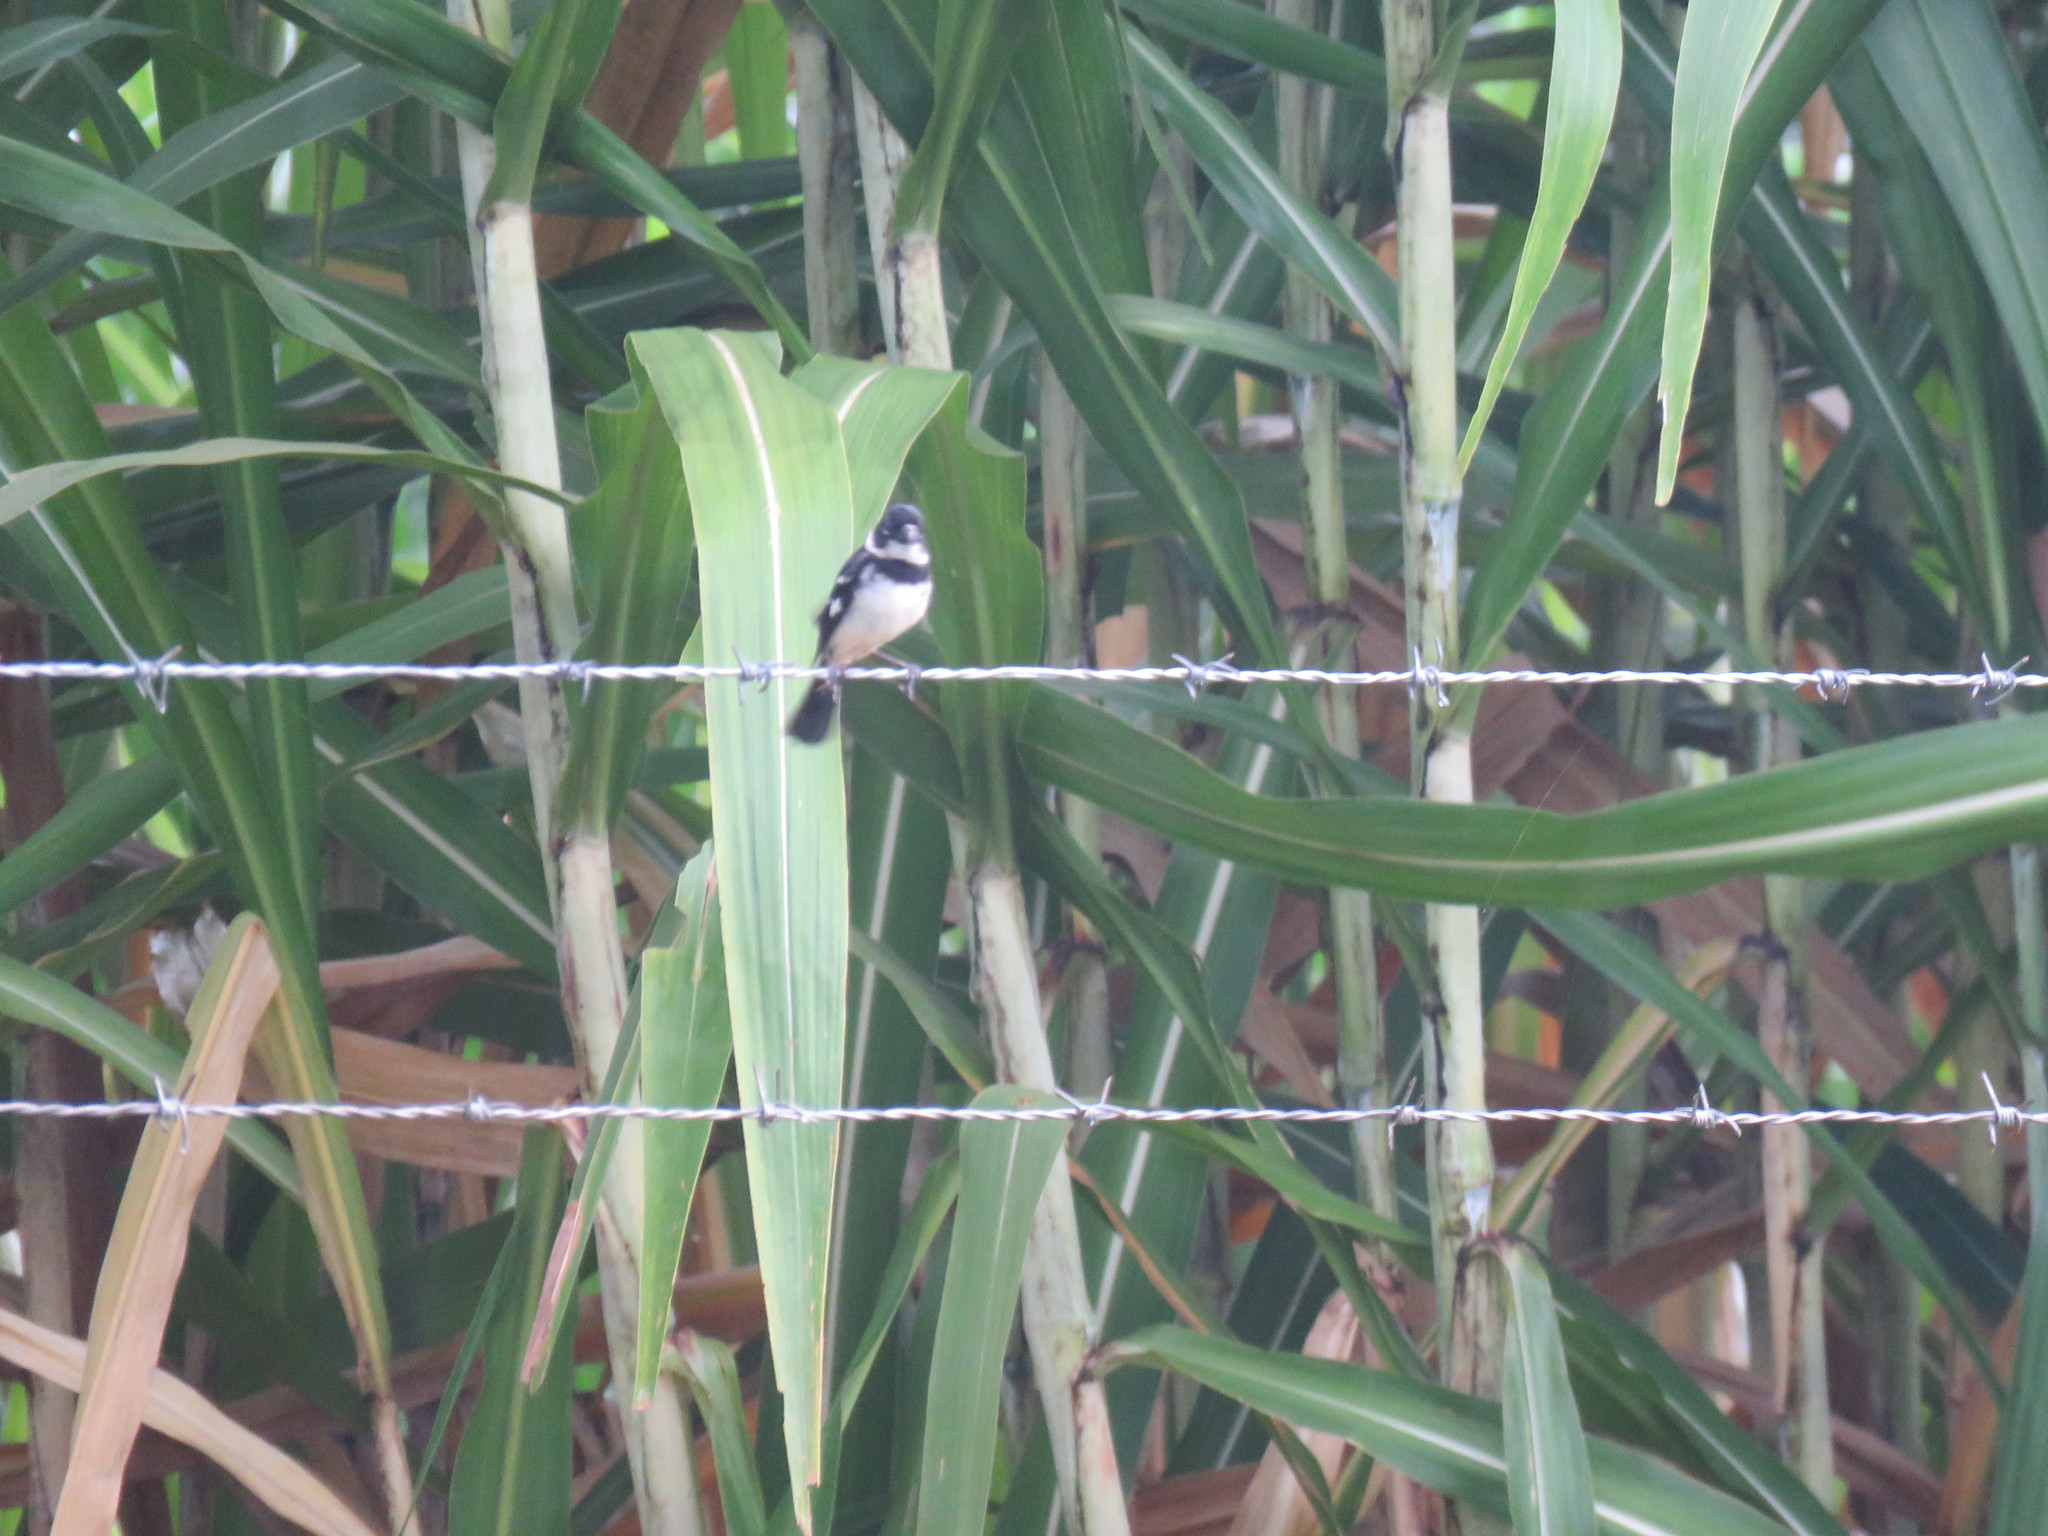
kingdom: Animalia
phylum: Chordata
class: Aves
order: Passeriformes
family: Thraupidae
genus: Sporophila
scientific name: Sporophila morelleti
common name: Morelet's seedeater
